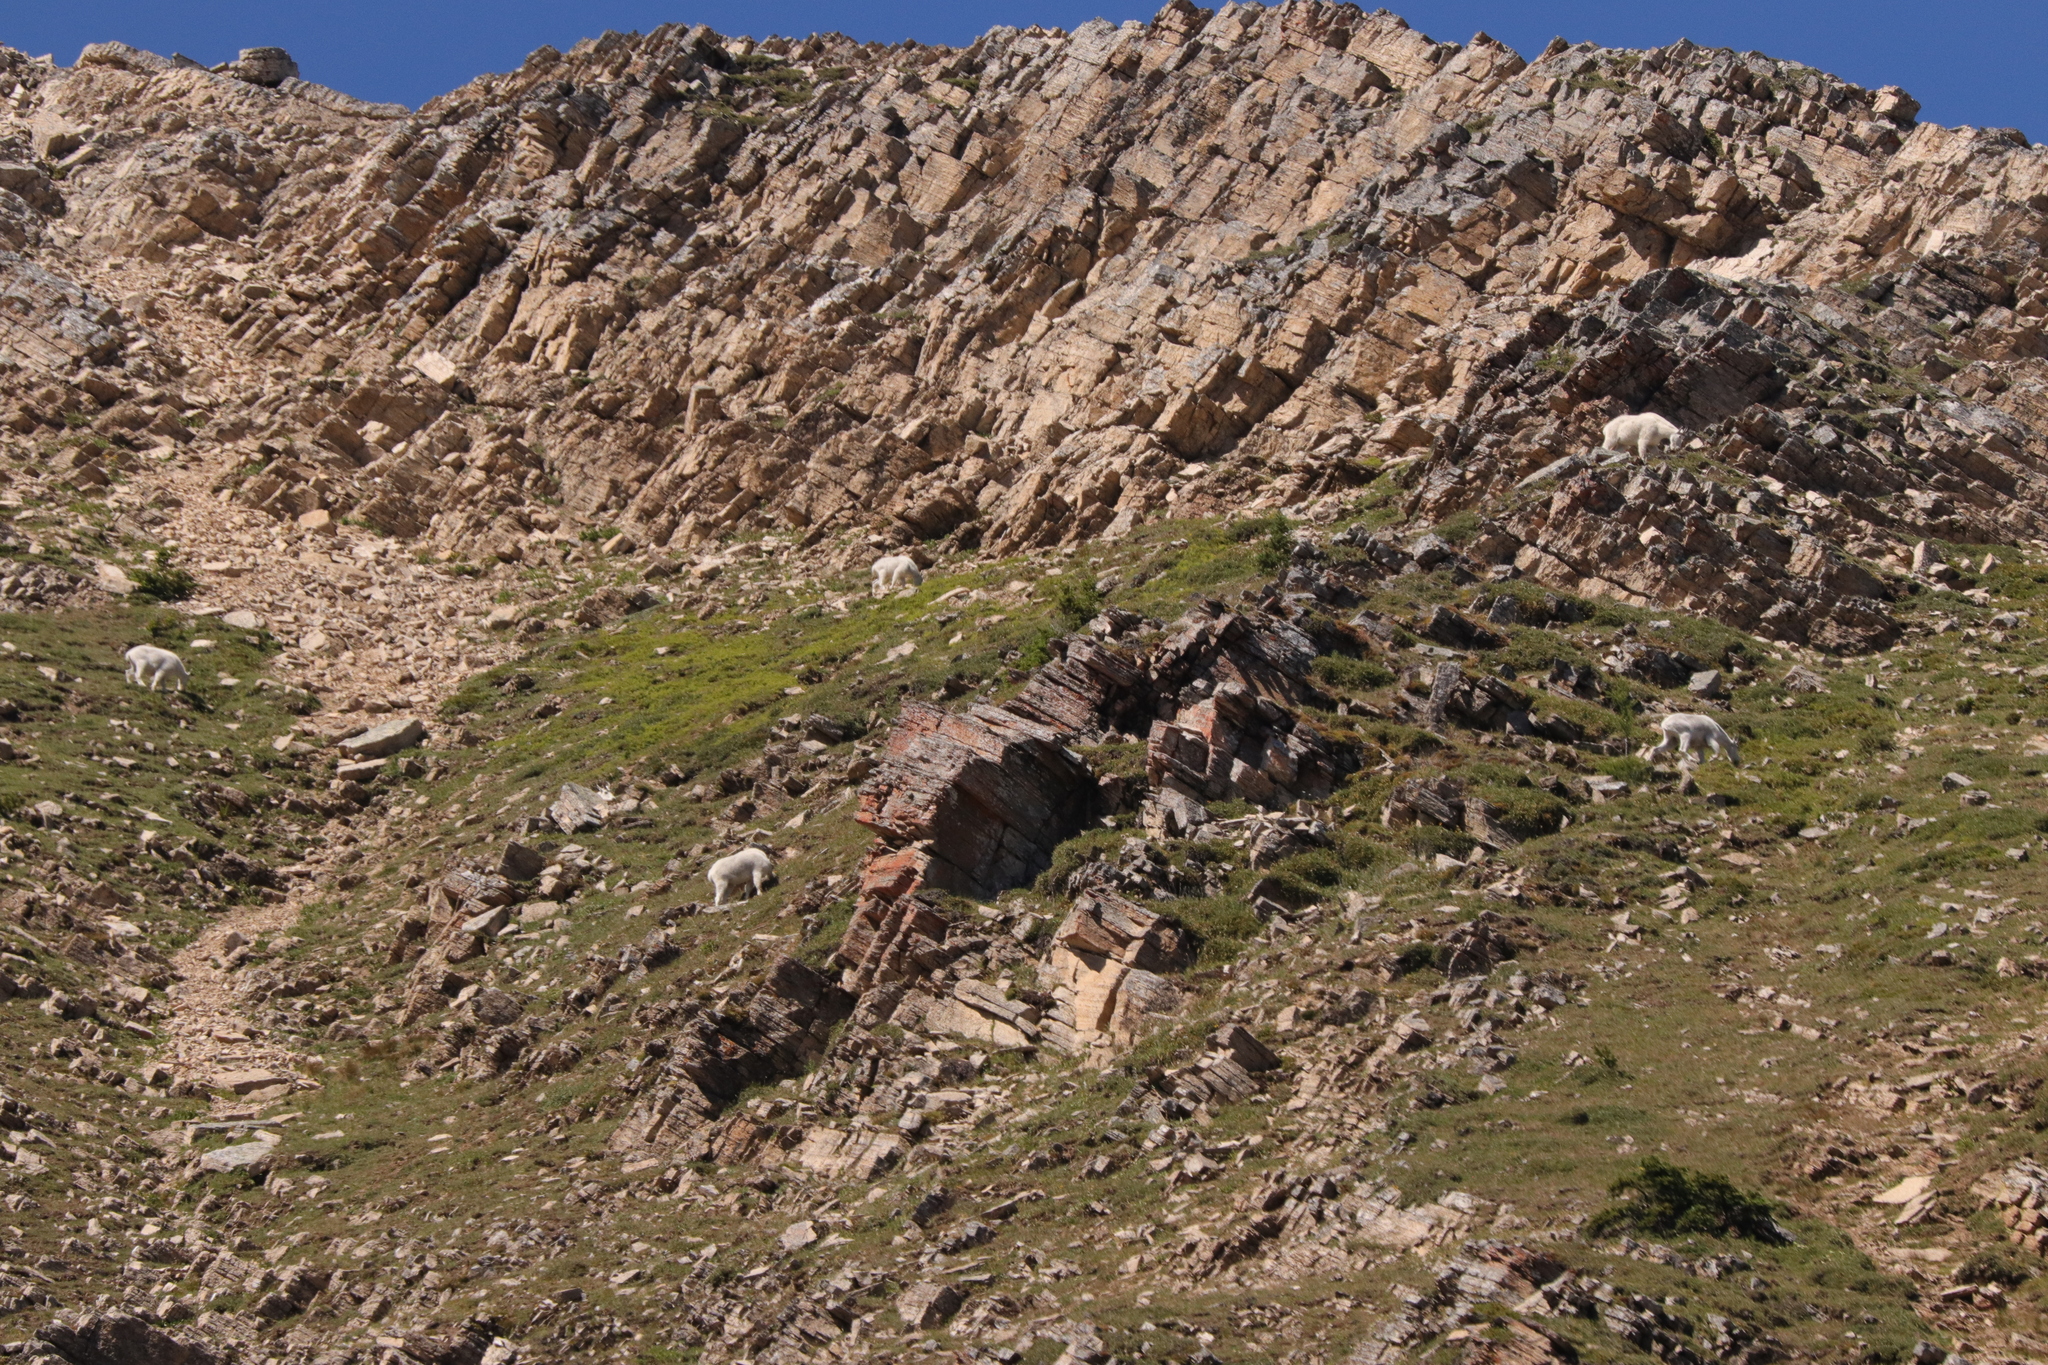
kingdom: Animalia
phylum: Chordata
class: Mammalia
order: Artiodactyla
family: Bovidae
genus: Oreamnos
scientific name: Oreamnos americanus
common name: Mountain goat
